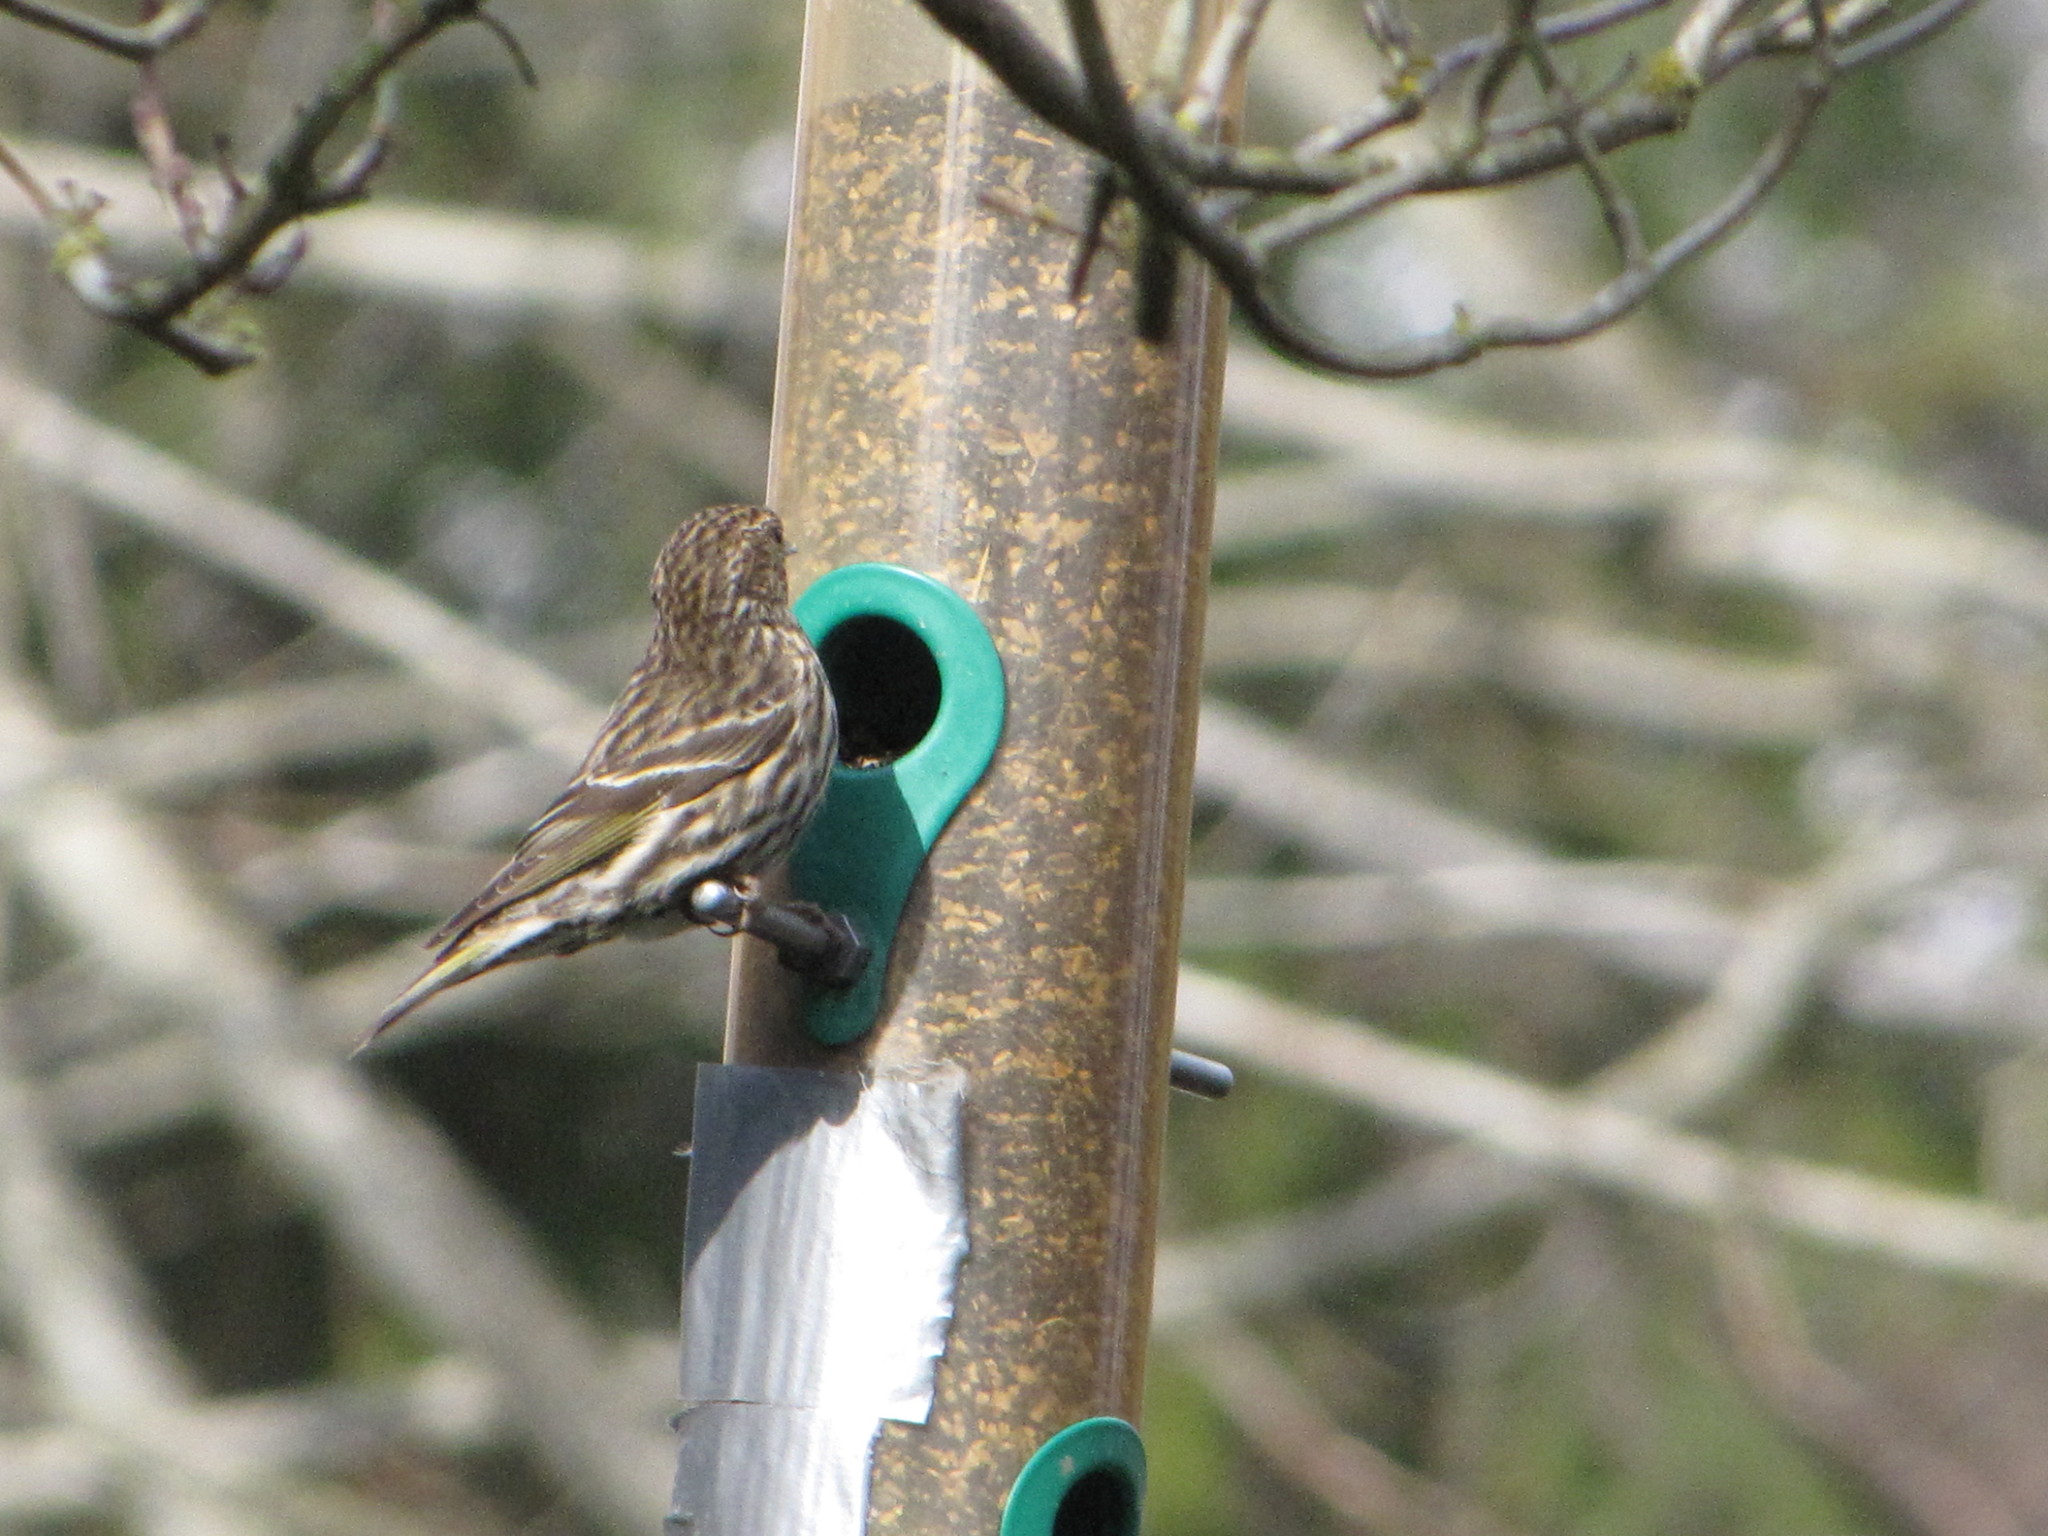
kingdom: Animalia
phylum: Chordata
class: Aves
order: Passeriformes
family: Fringillidae
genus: Spinus
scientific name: Spinus pinus
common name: Pine siskin
